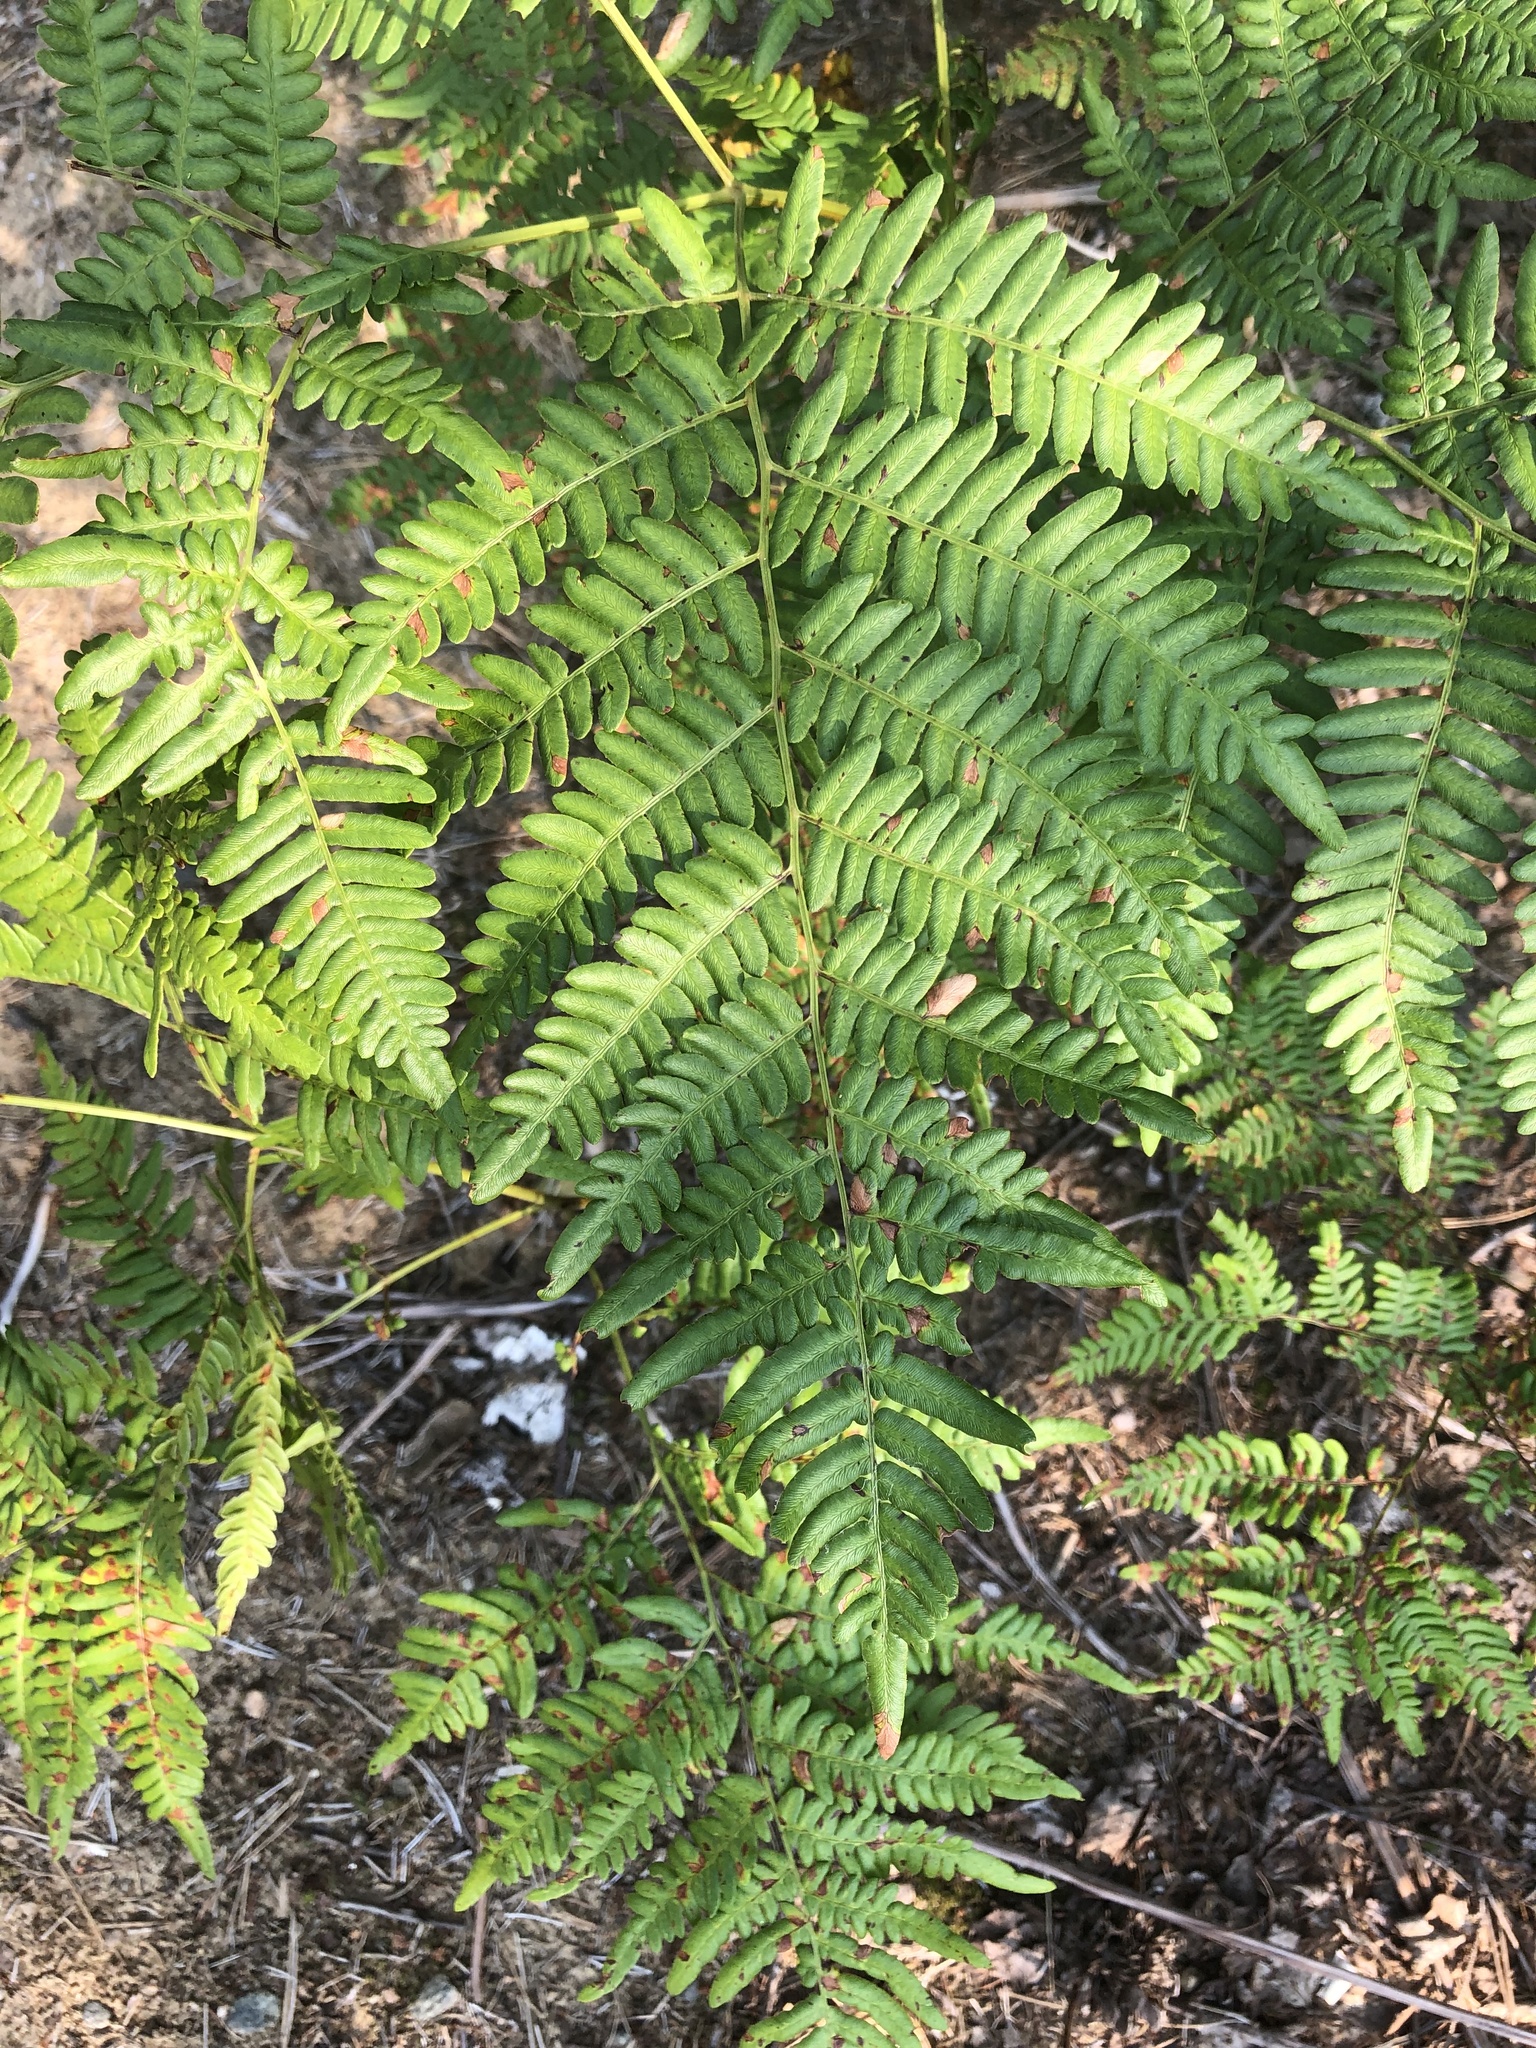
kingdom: Plantae
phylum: Tracheophyta
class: Polypodiopsida
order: Polypodiales
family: Dennstaedtiaceae
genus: Pteridium
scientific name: Pteridium aquilinum
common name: Bracken
